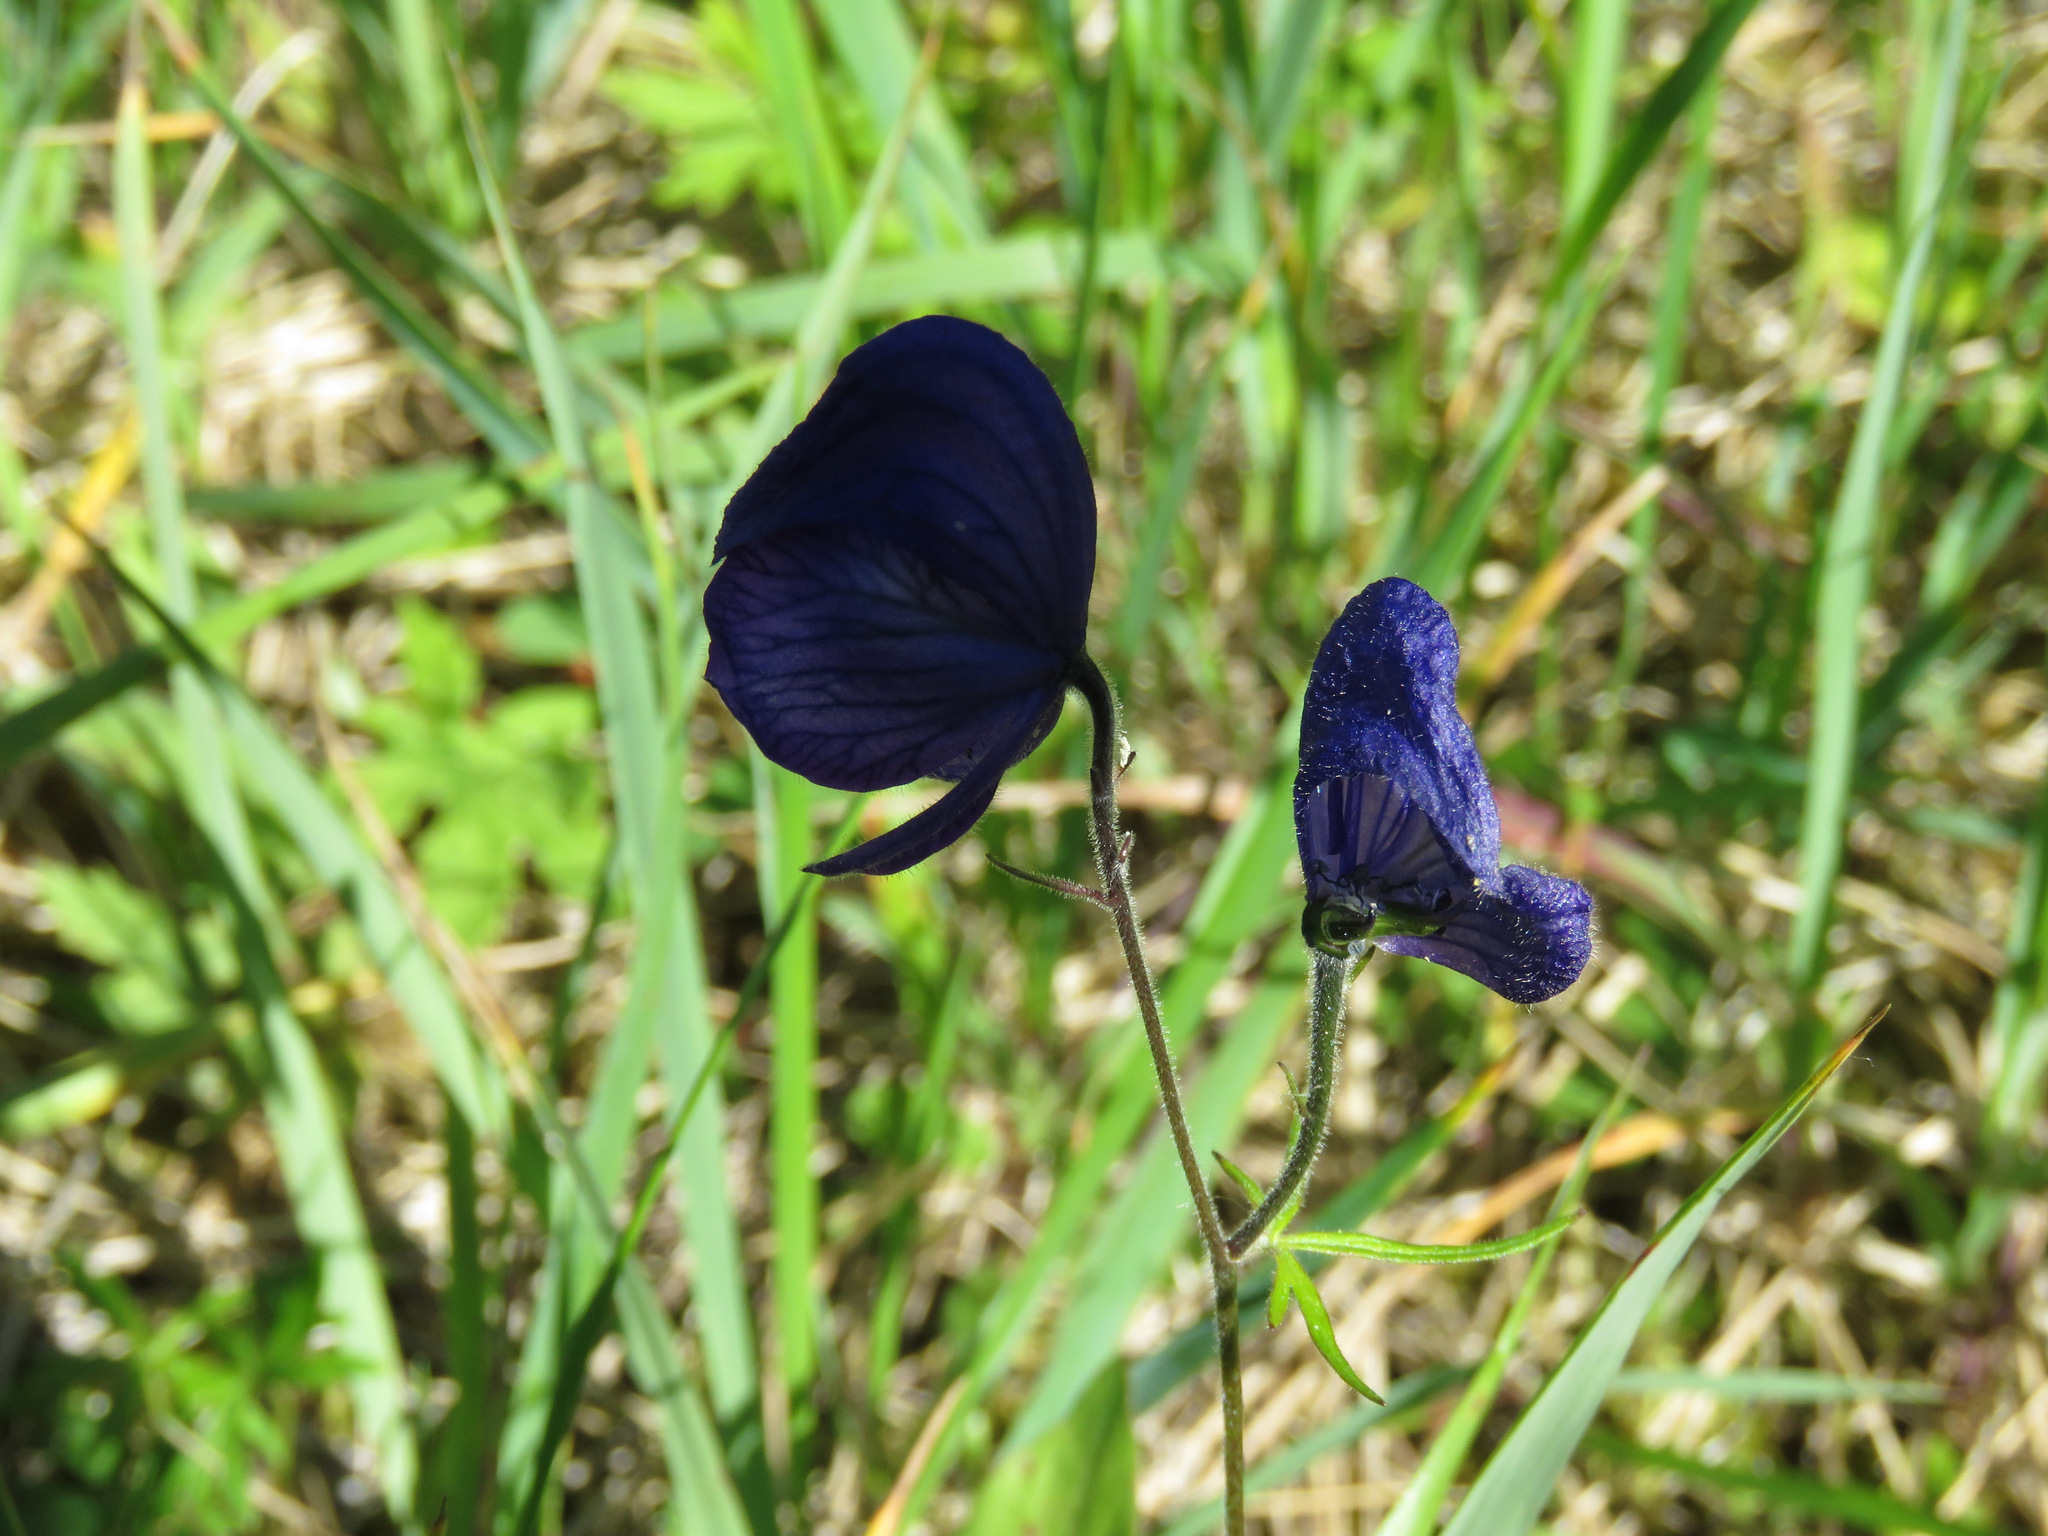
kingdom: Plantae
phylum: Tracheophyta
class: Magnoliopsida
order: Ranunculales
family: Ranunculaceae
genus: Aconitum
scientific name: Aconitum delphiniifolium
